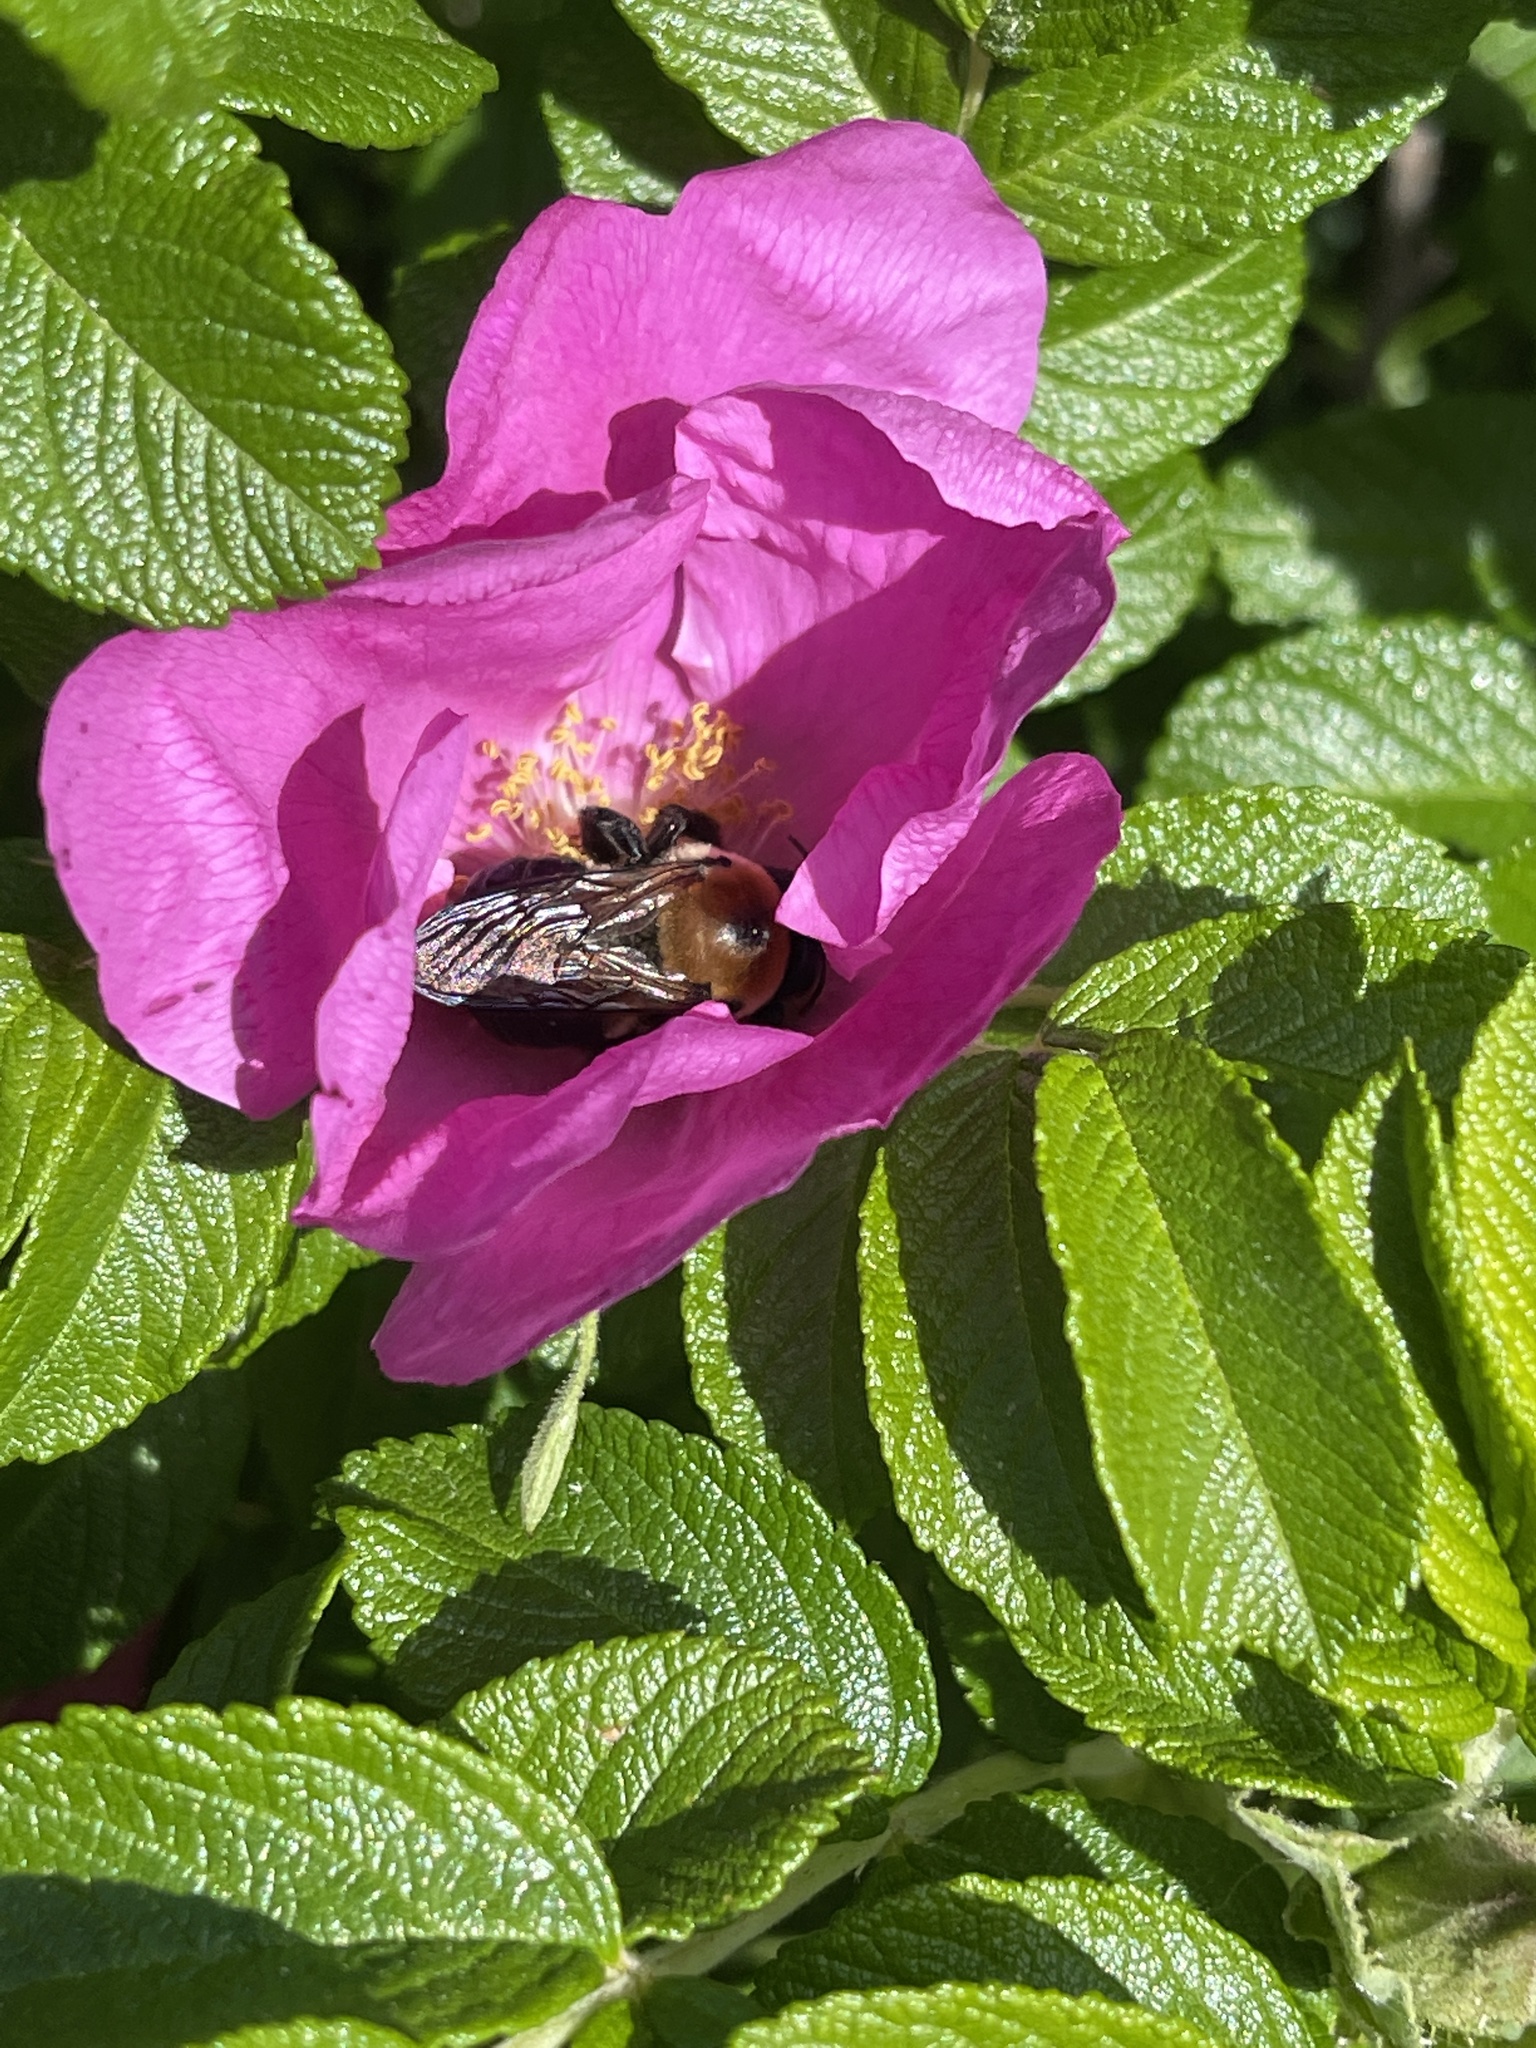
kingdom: Animalia
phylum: Arthropoda
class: Insecta
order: Hymenoptera
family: Apidae
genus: Xylocopa
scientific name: Xylocopa virginica
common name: Carpenter bee
